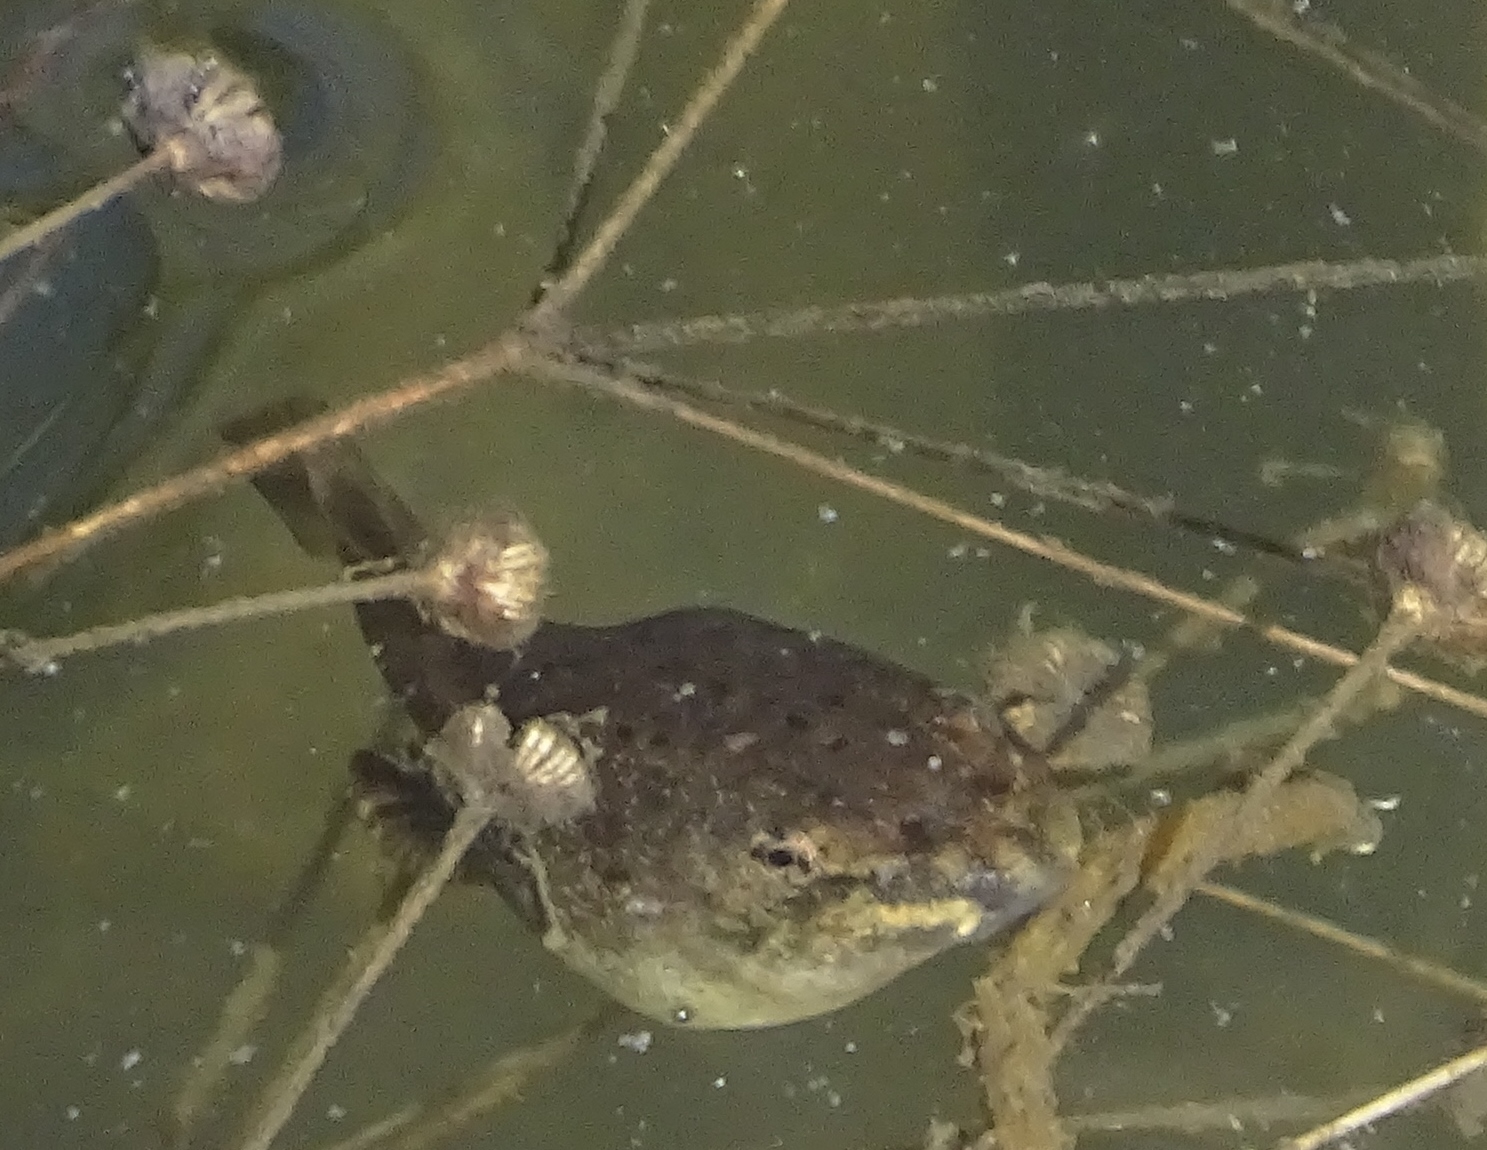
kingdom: Animalia
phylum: Chordata
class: Amphibia
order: Anura
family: Ranidae
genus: Lithobates
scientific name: Lithobates catesbeianus
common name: American bullfrog
